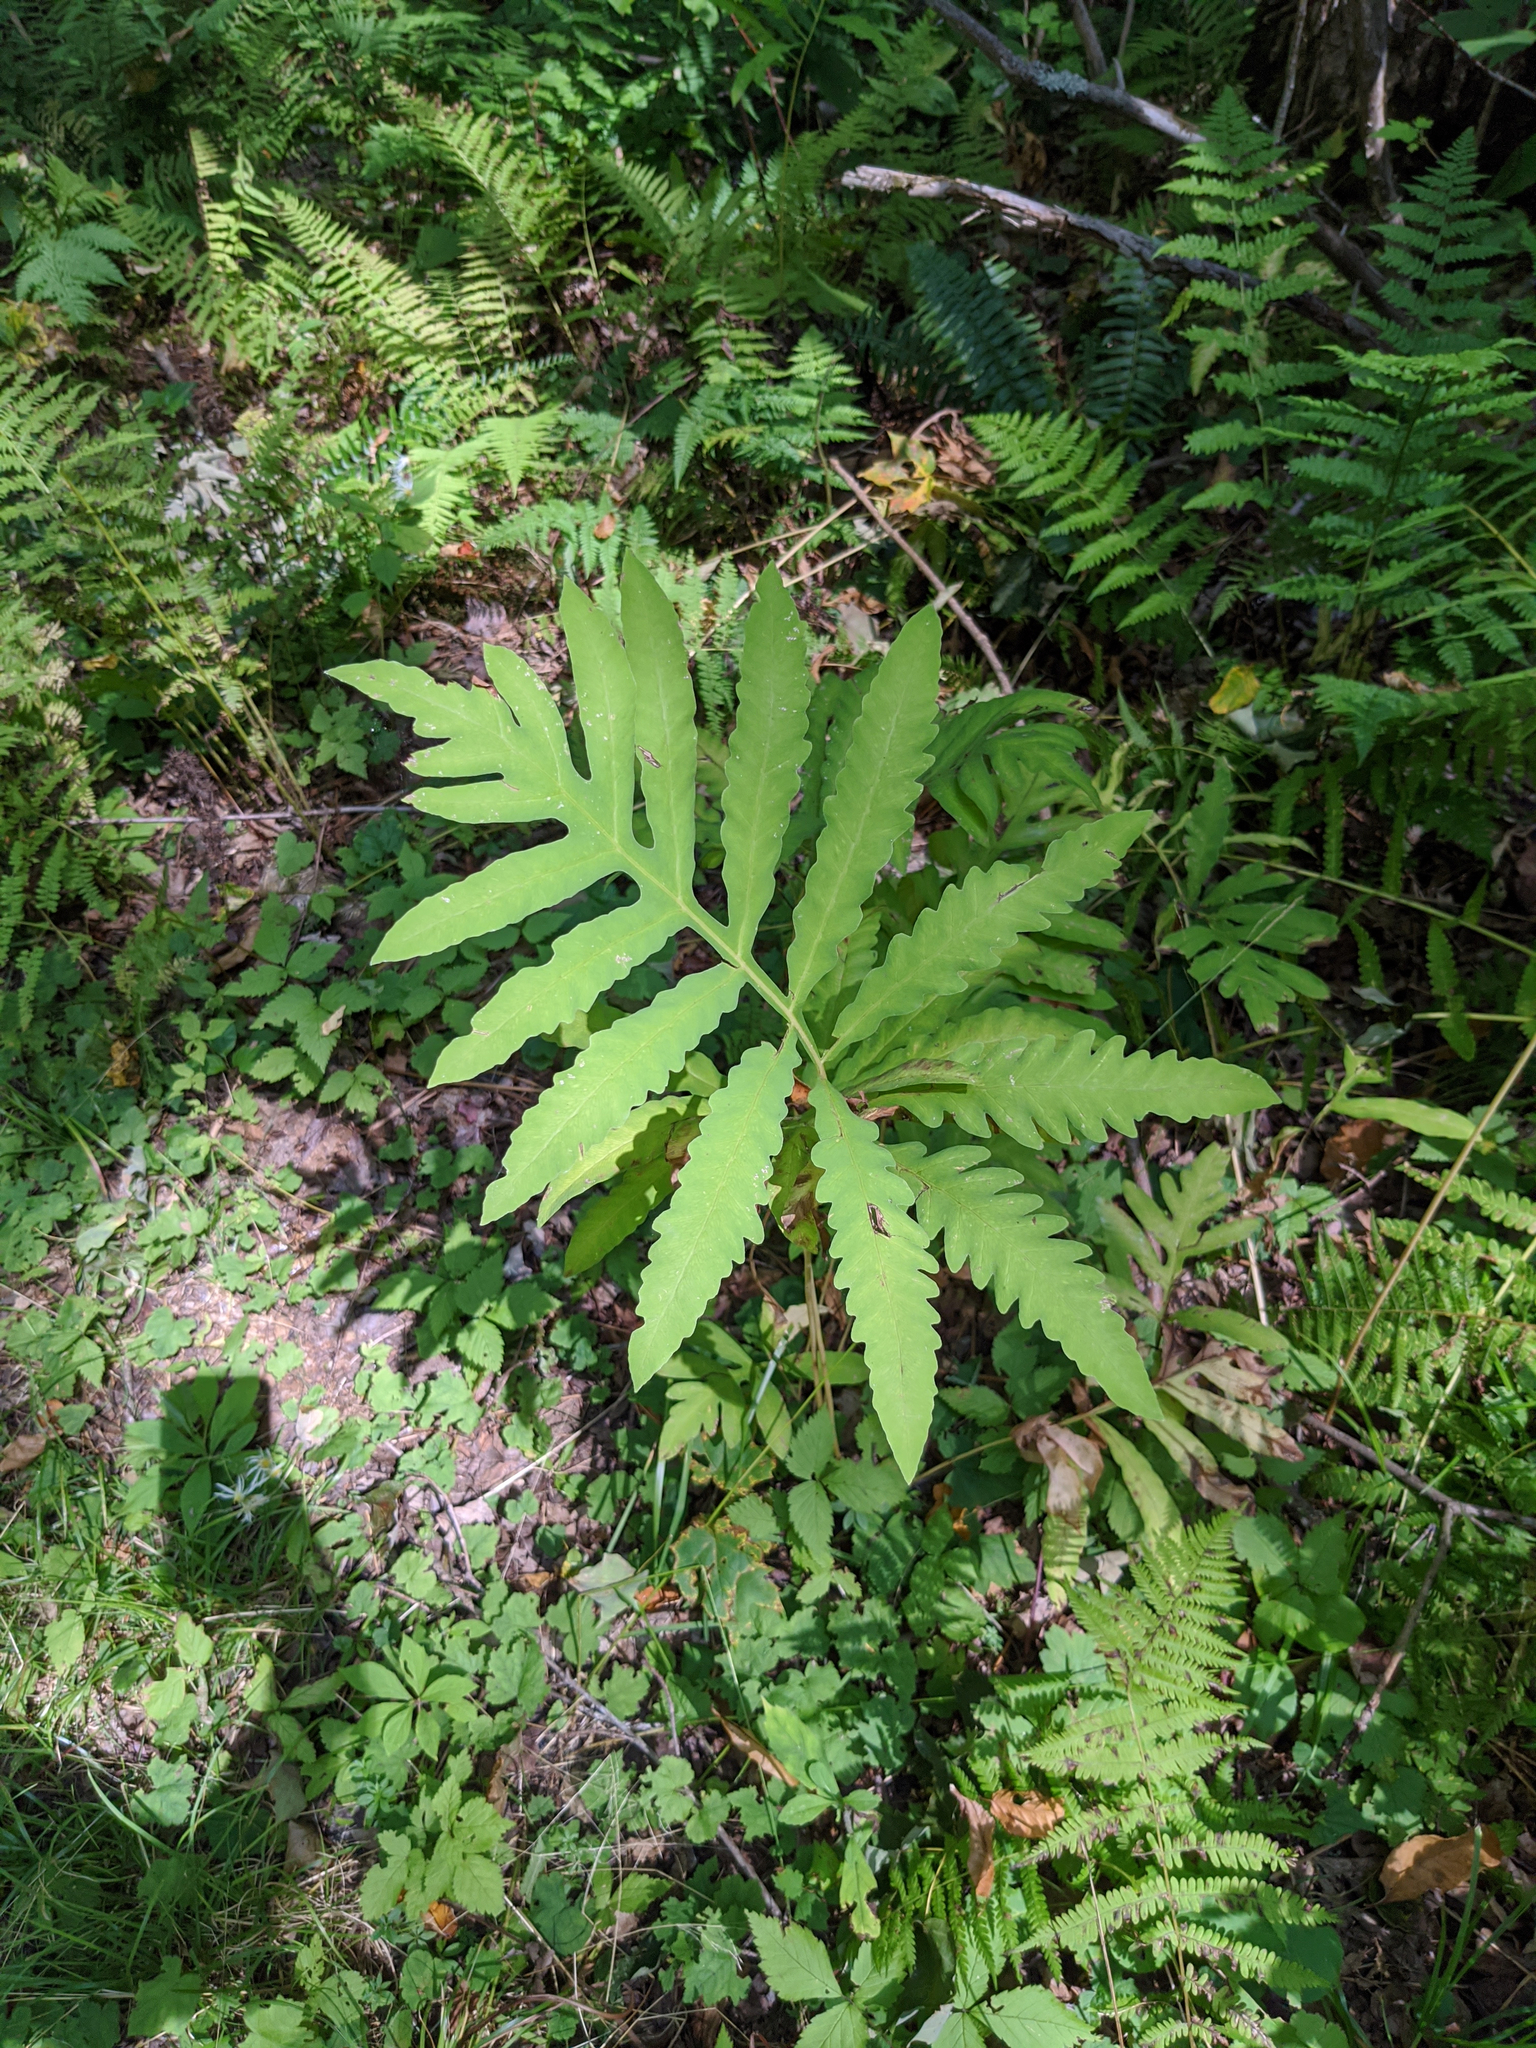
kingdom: Plantae
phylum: Tracheophyta
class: Polypodiopsida
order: Polypodiales
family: Onocleaceae
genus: Onoclea
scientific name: Onoclea sensibilis
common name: Sensitive fern
